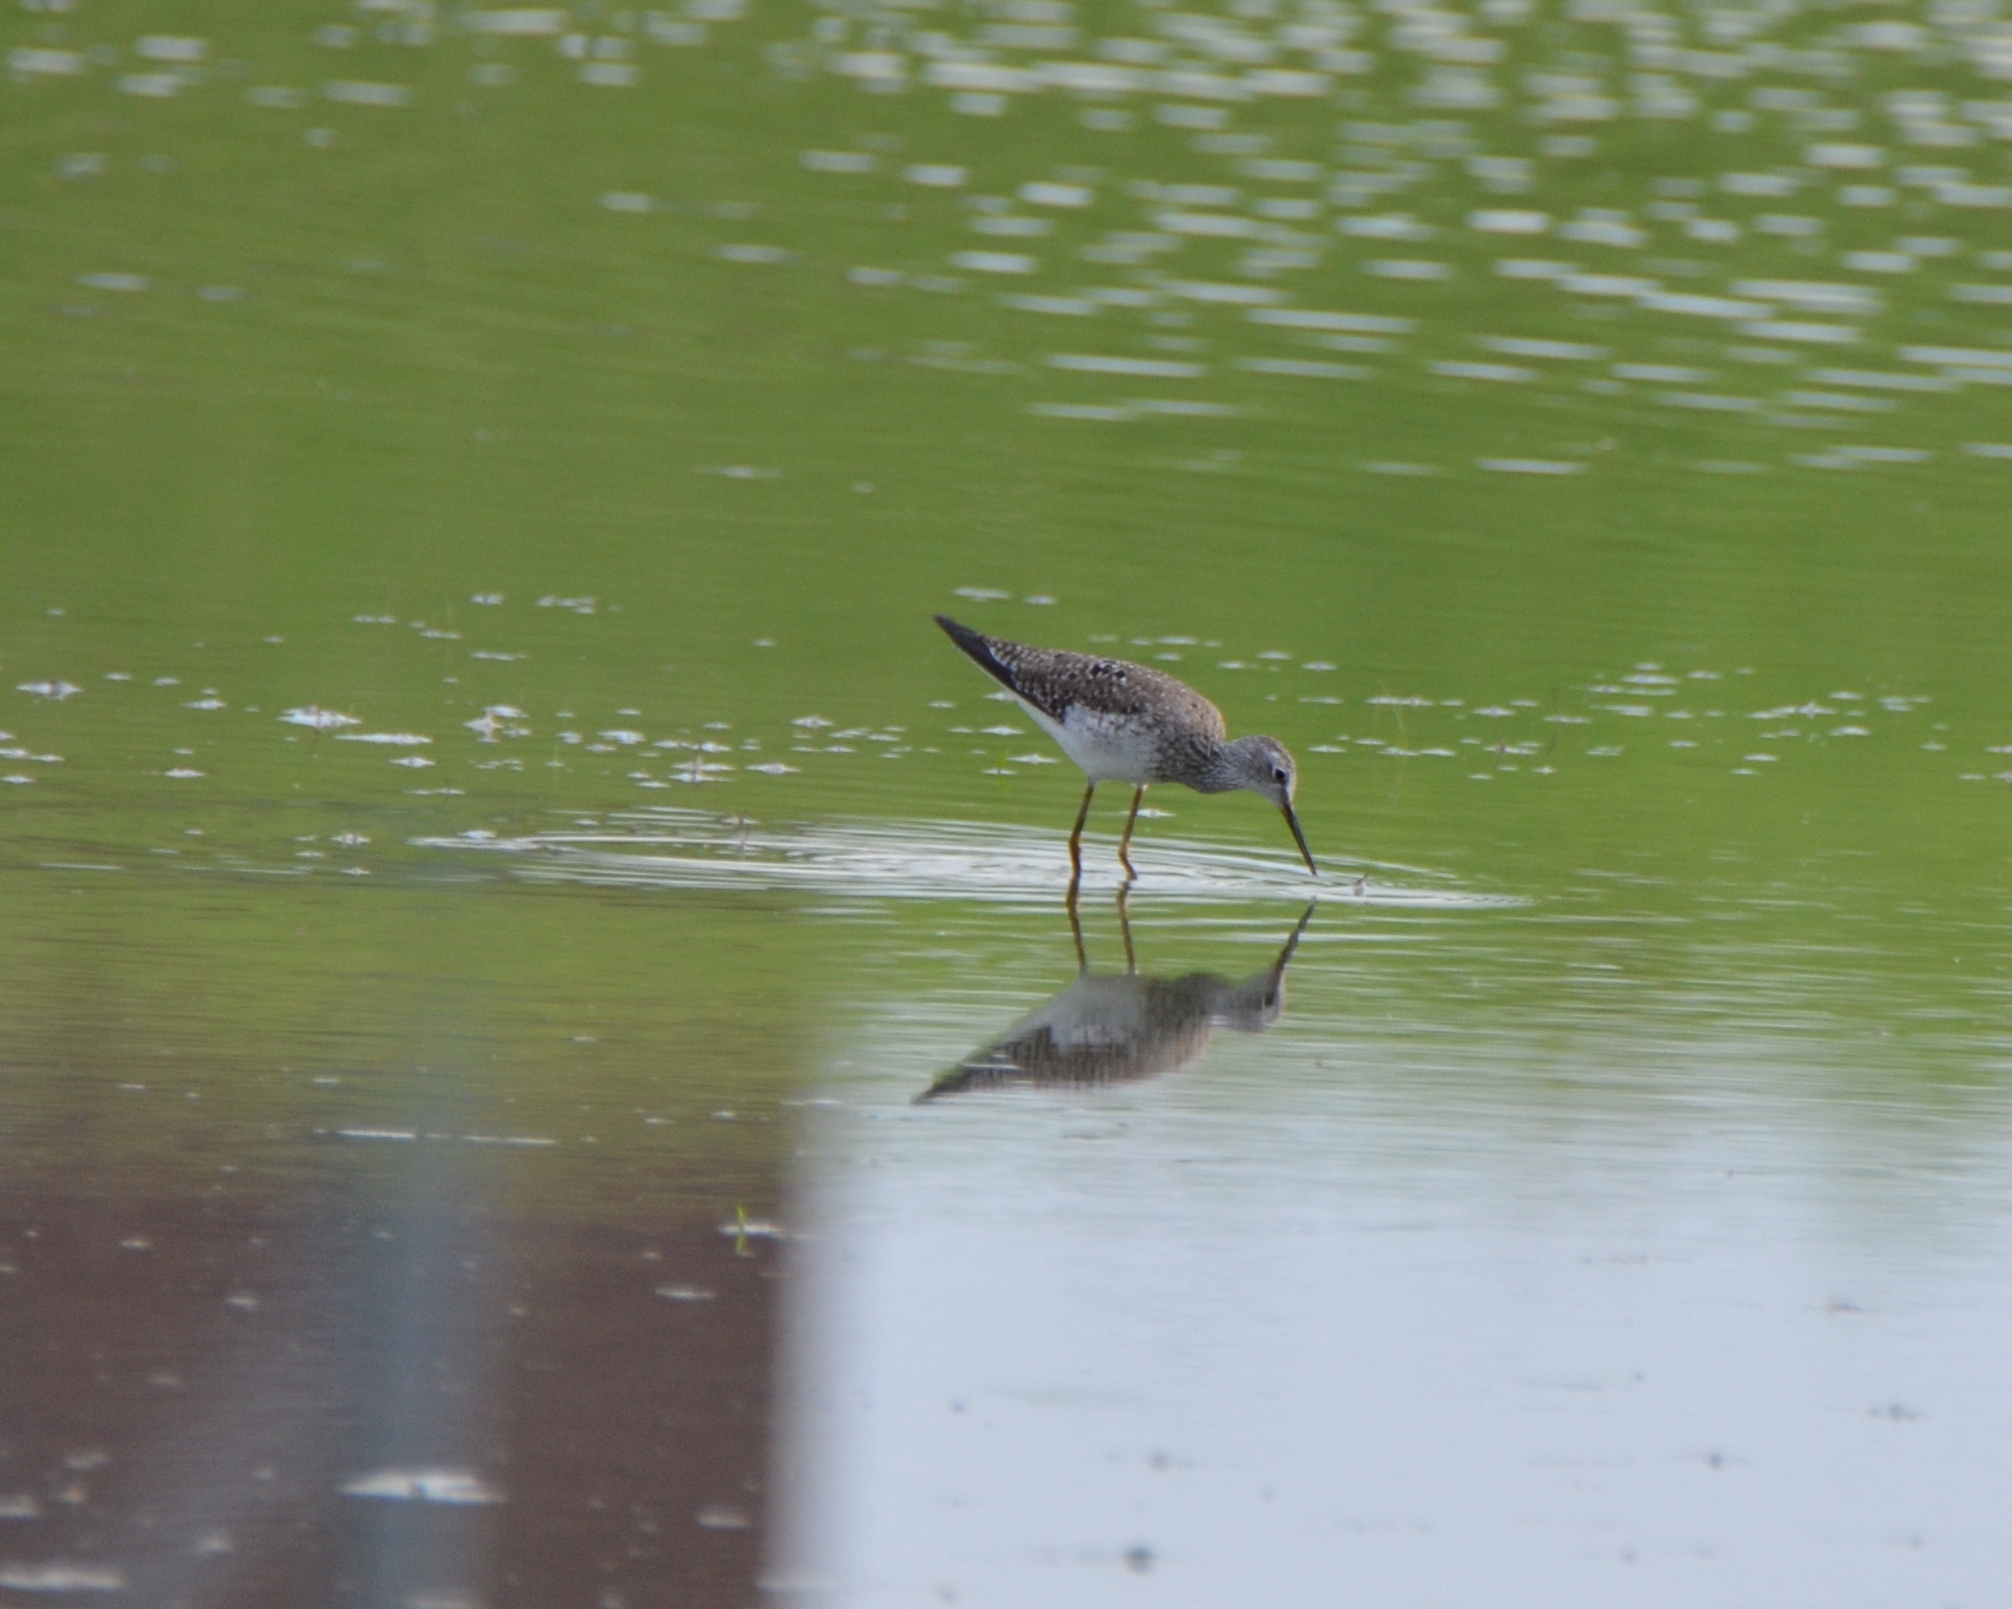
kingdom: Animalia
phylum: Chordata
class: Aves
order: Charadriiformes
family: Scolopacidae
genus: Tringa
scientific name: Tringa flavipes
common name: Lesser yellowlegs
